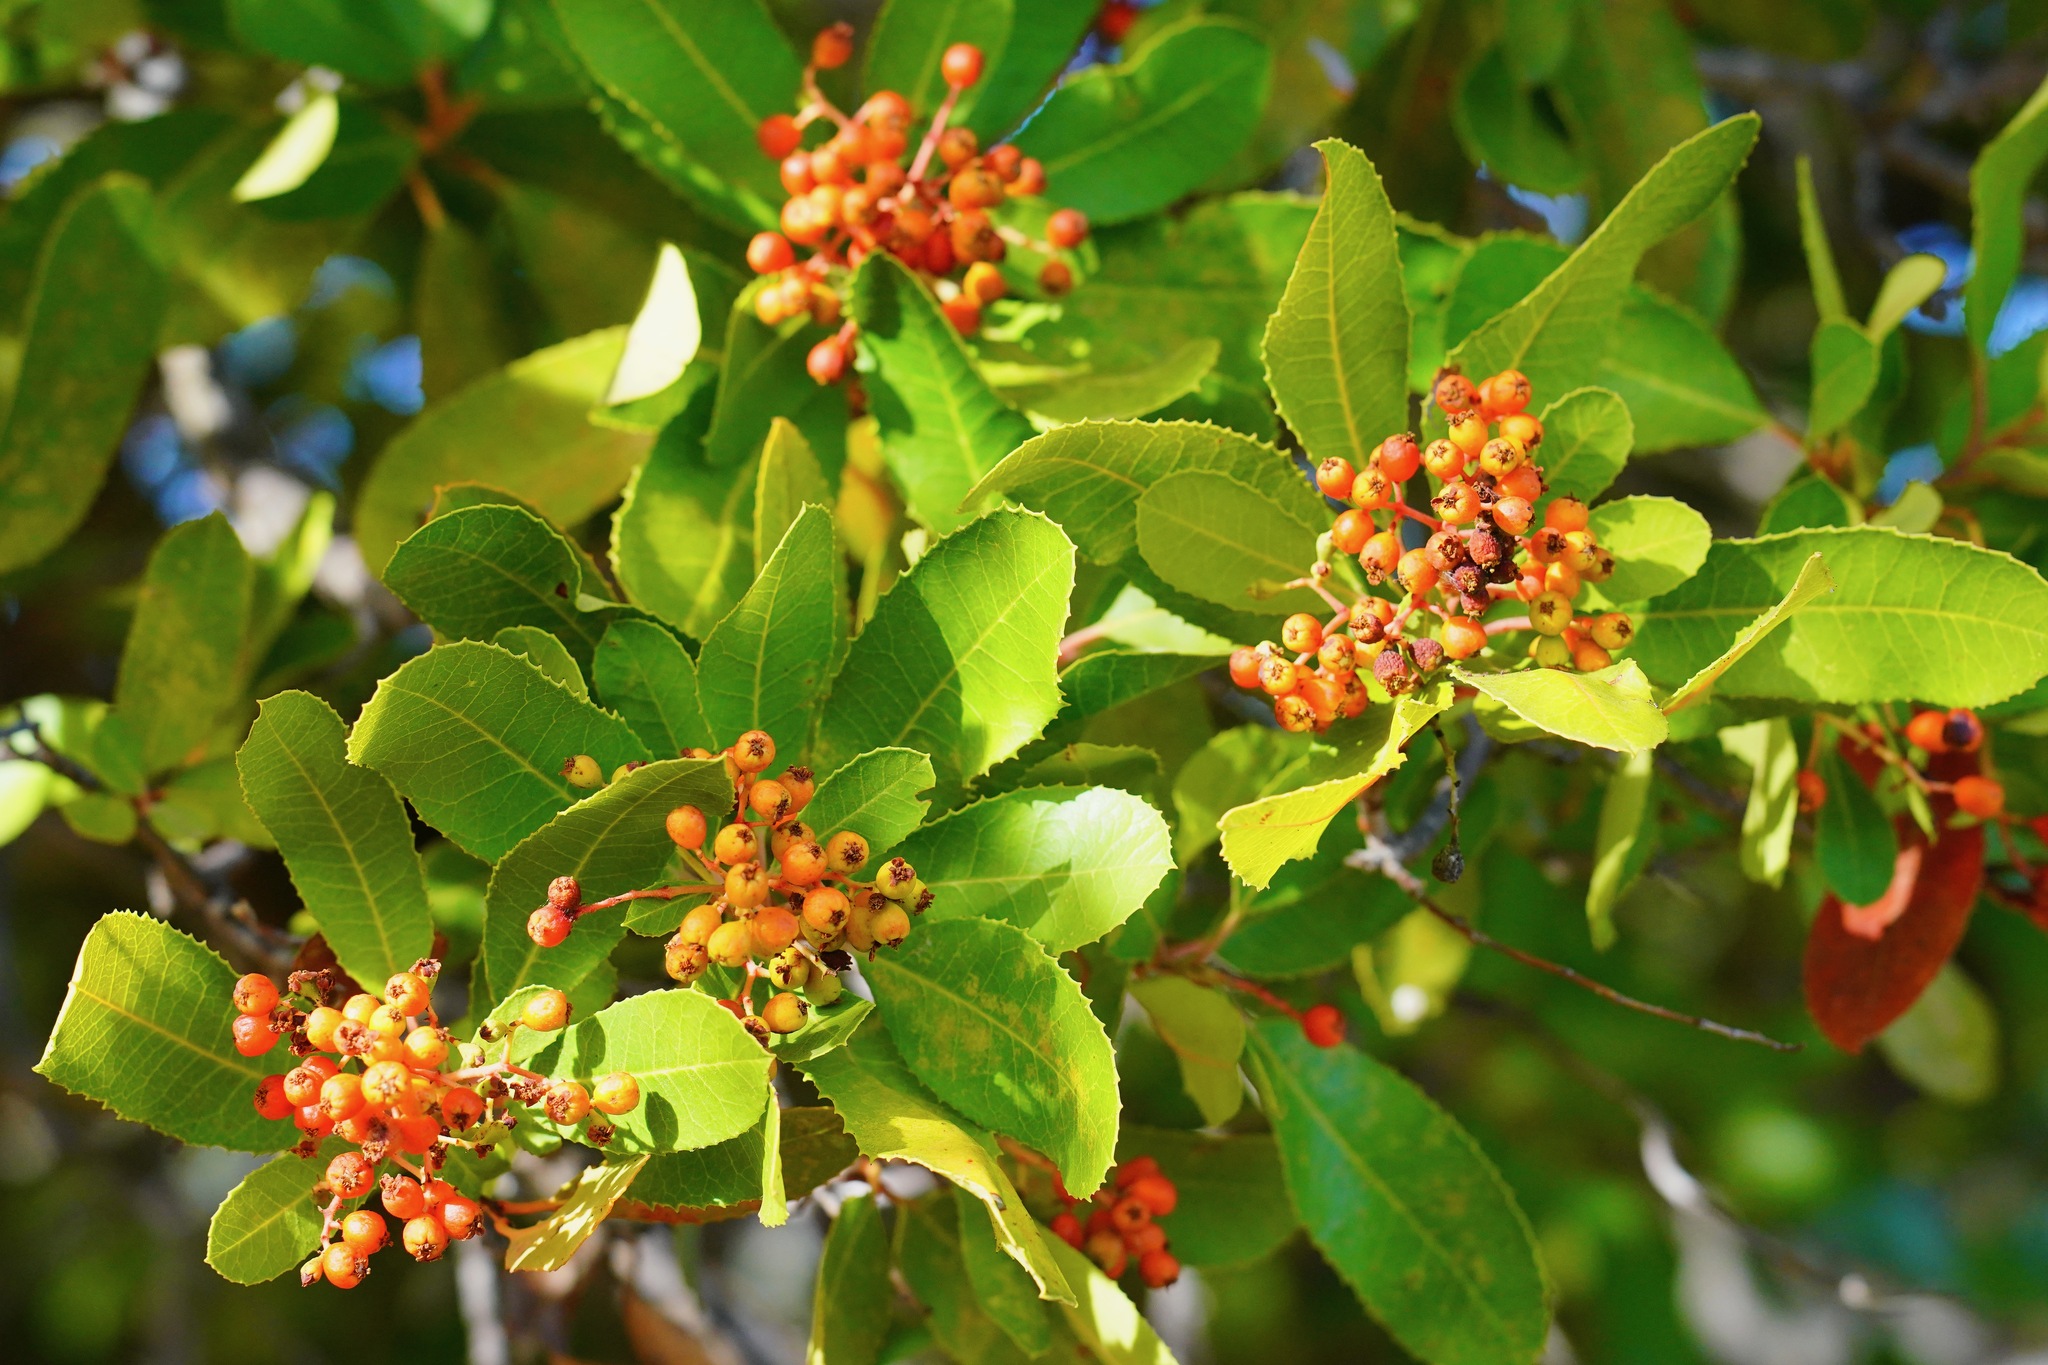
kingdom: Plantae
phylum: Tracheophyta
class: Magnoliopsida
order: Rosales
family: Rosaceae
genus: Heteromeles
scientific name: Heteromeles arbutifolia
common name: California-holly
